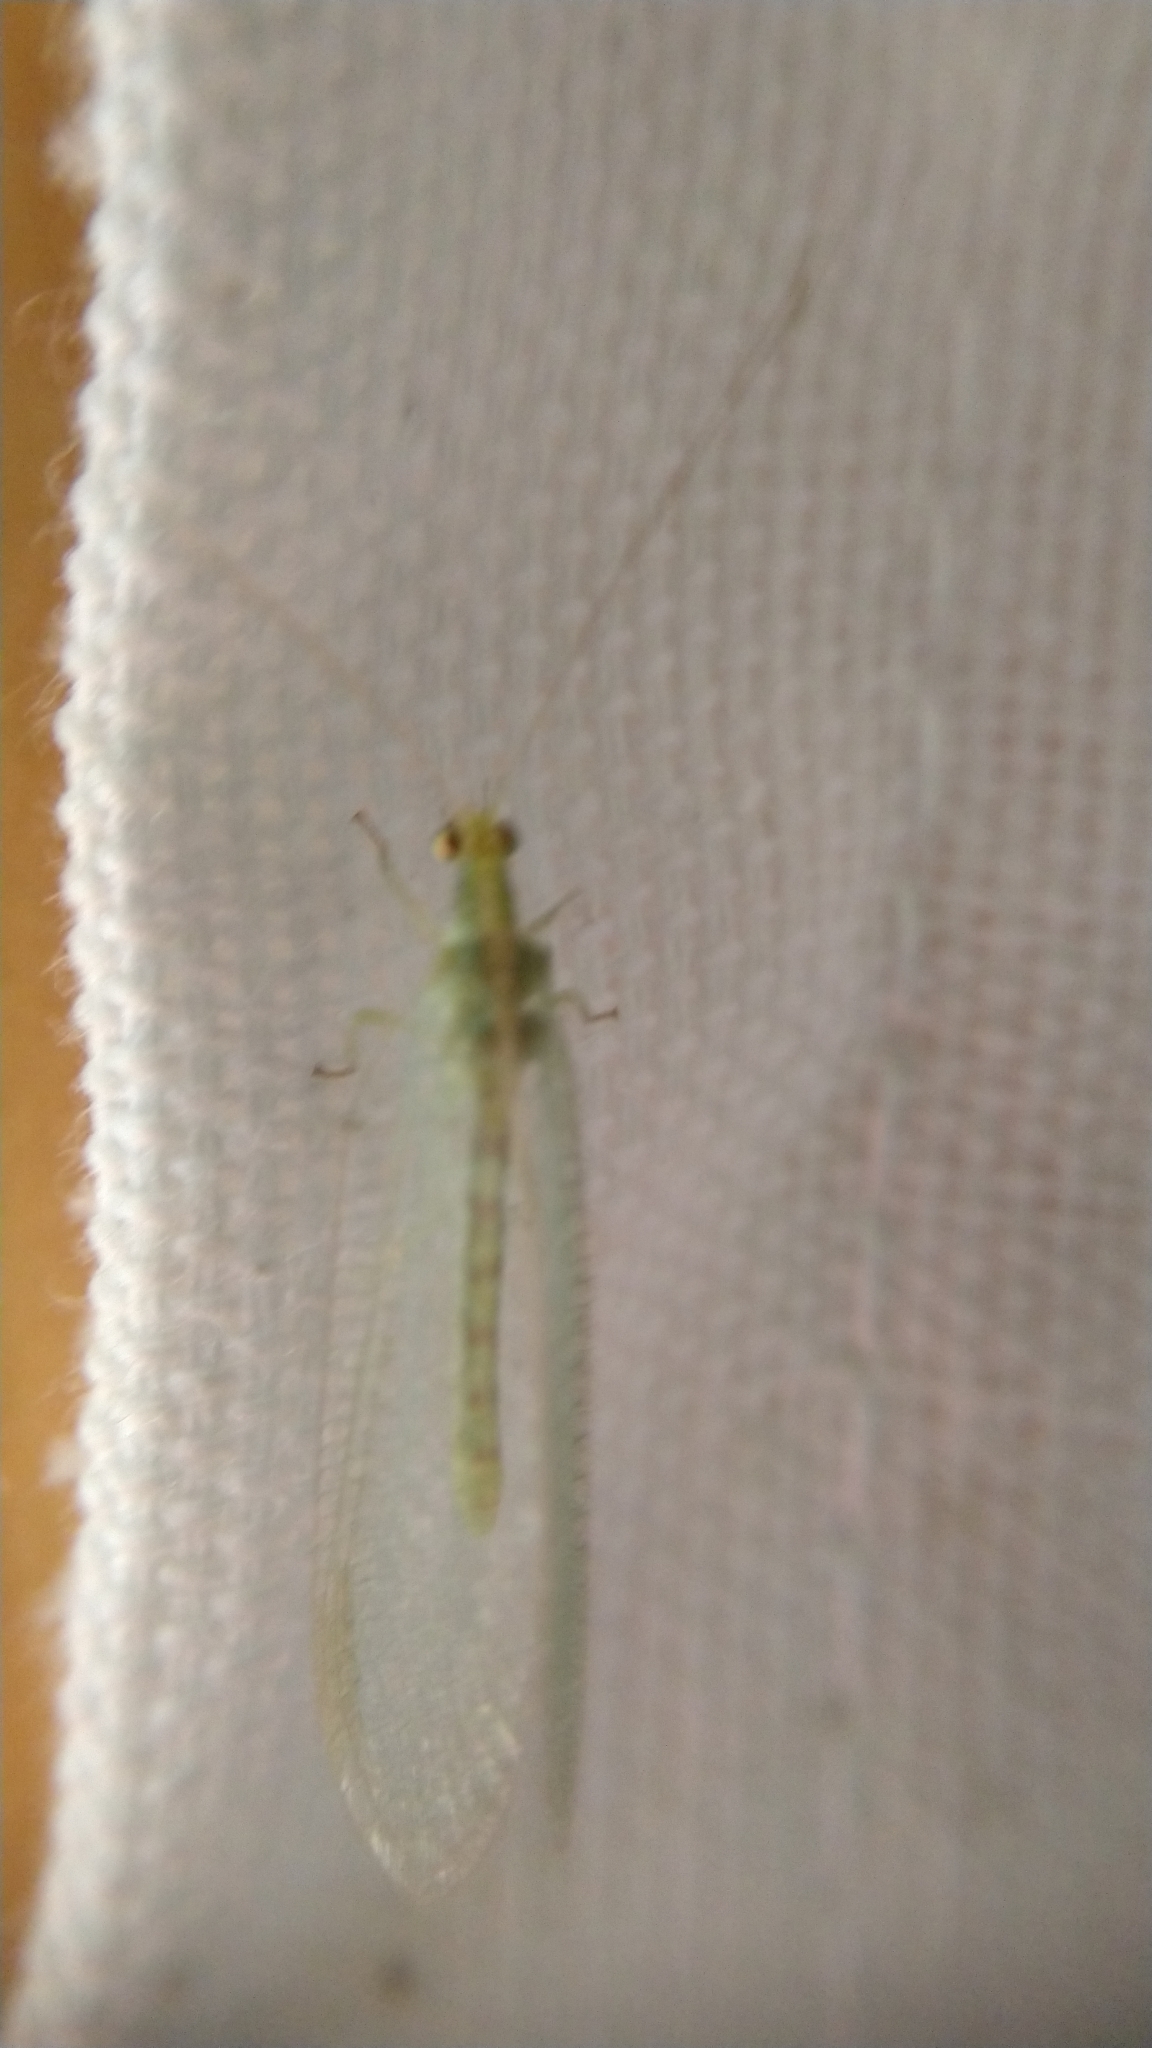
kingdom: Animalia
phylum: Arthropoda
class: Insecta
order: Neuroptera
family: Chrysopidae
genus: Chrysoperla
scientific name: Chrysoperla
